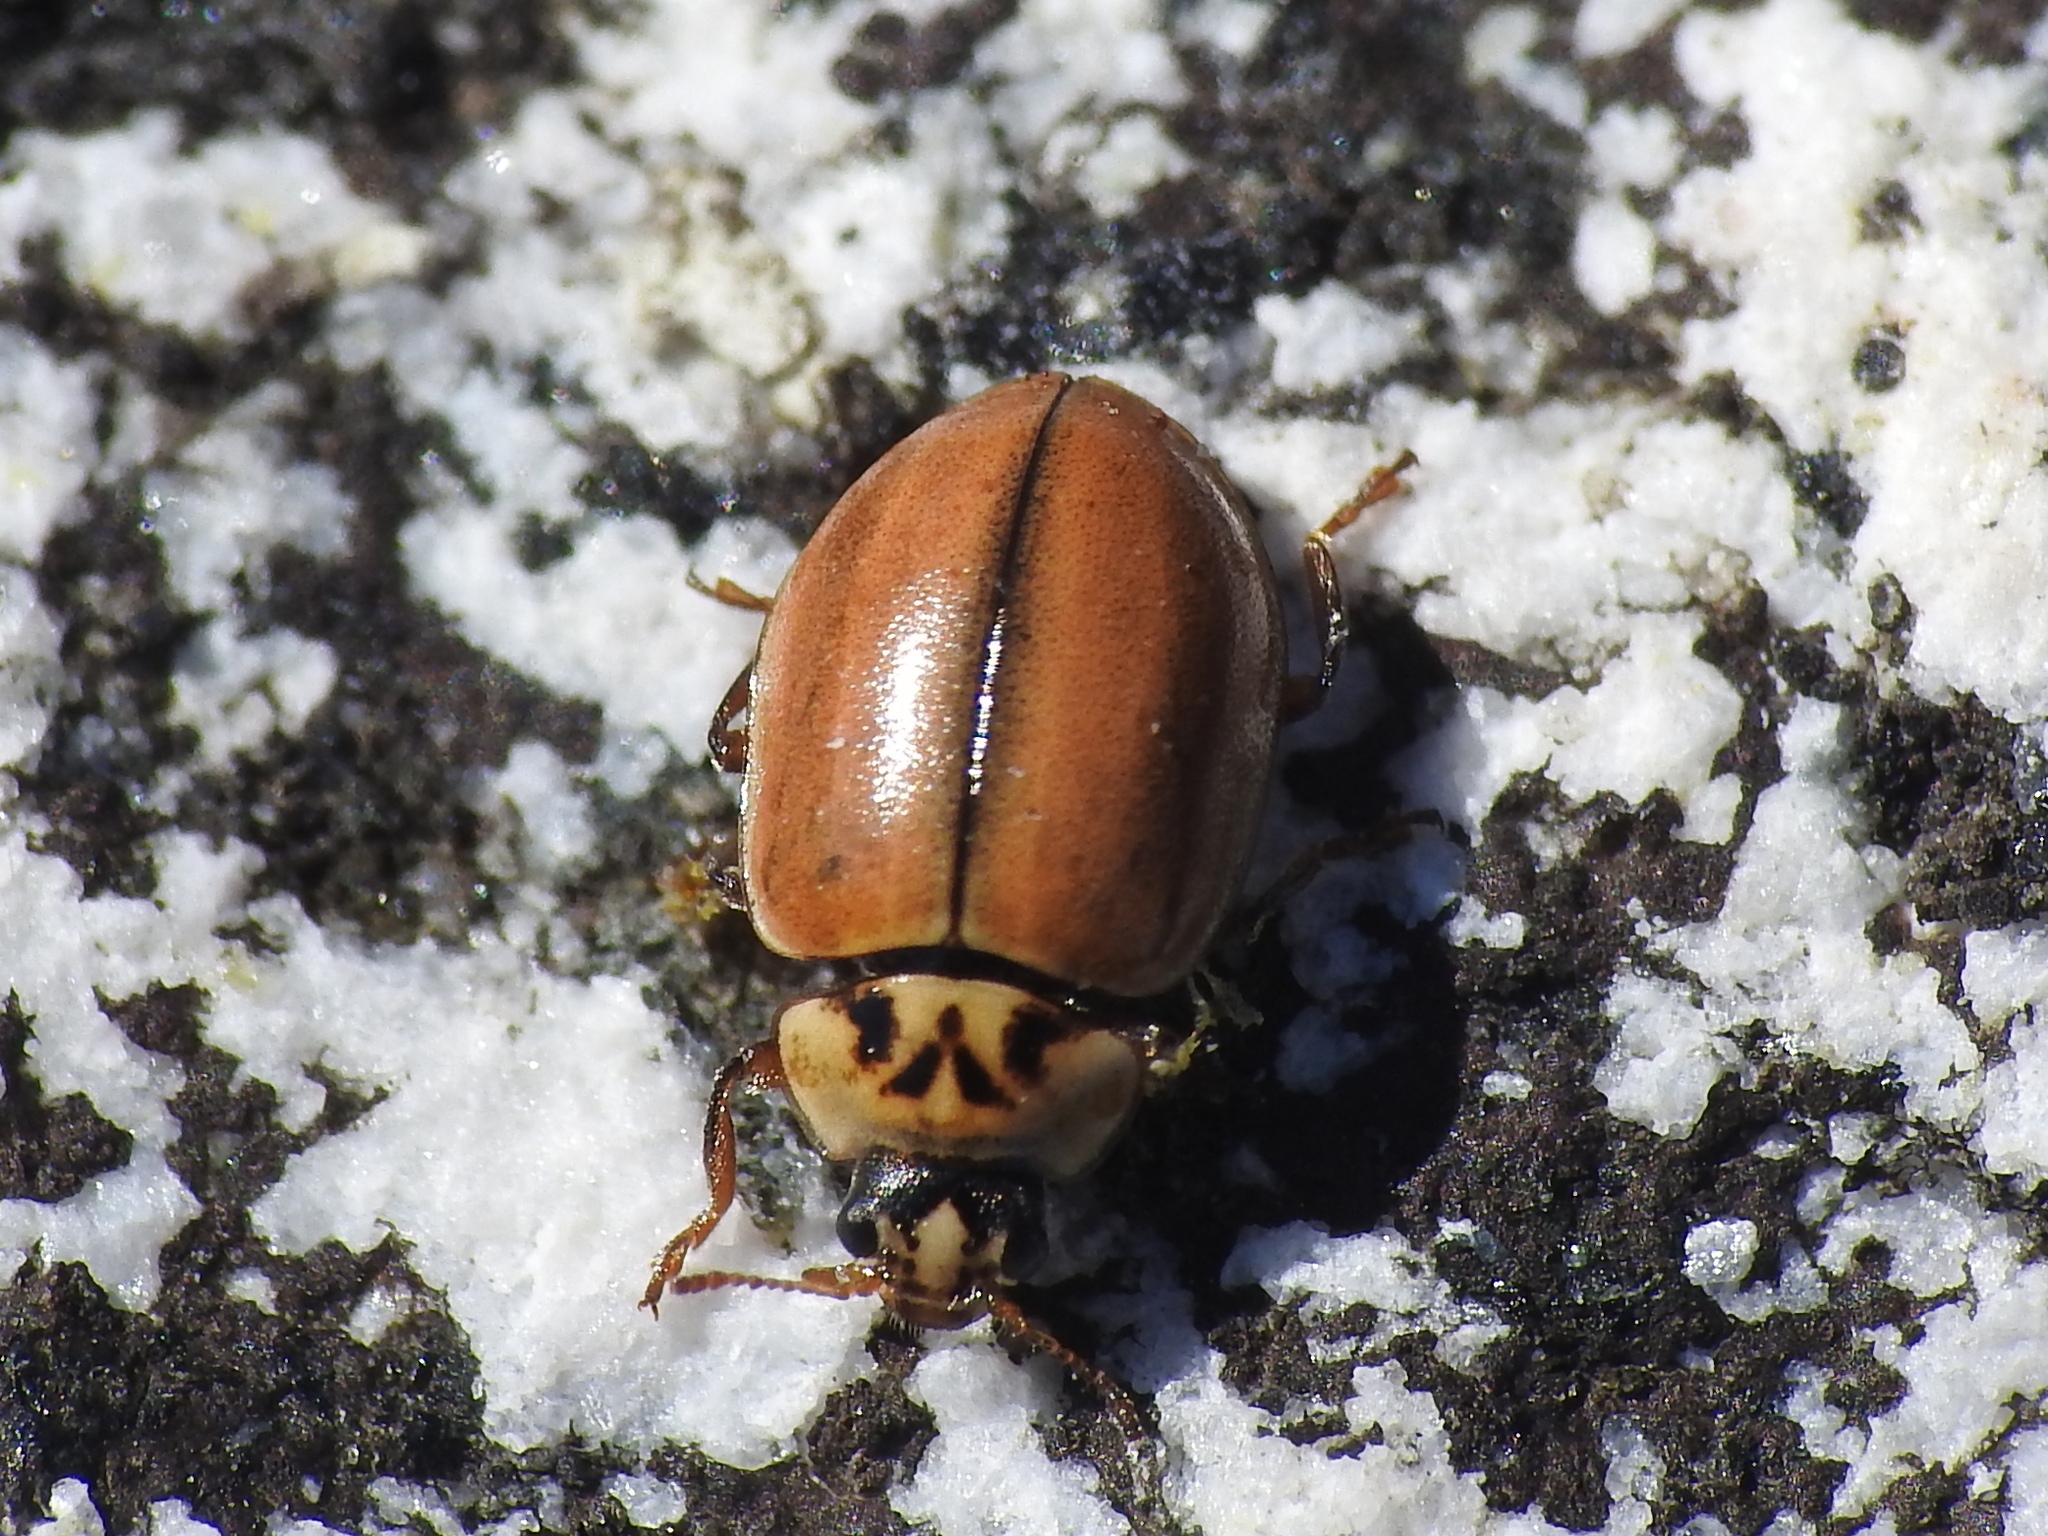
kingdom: Animalia
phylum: Arthropoda
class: Insecta
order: Coleoptera
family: Coccinellidae
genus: Aphidecta
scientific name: Aphidecta obliterata
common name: Larch ladybird
